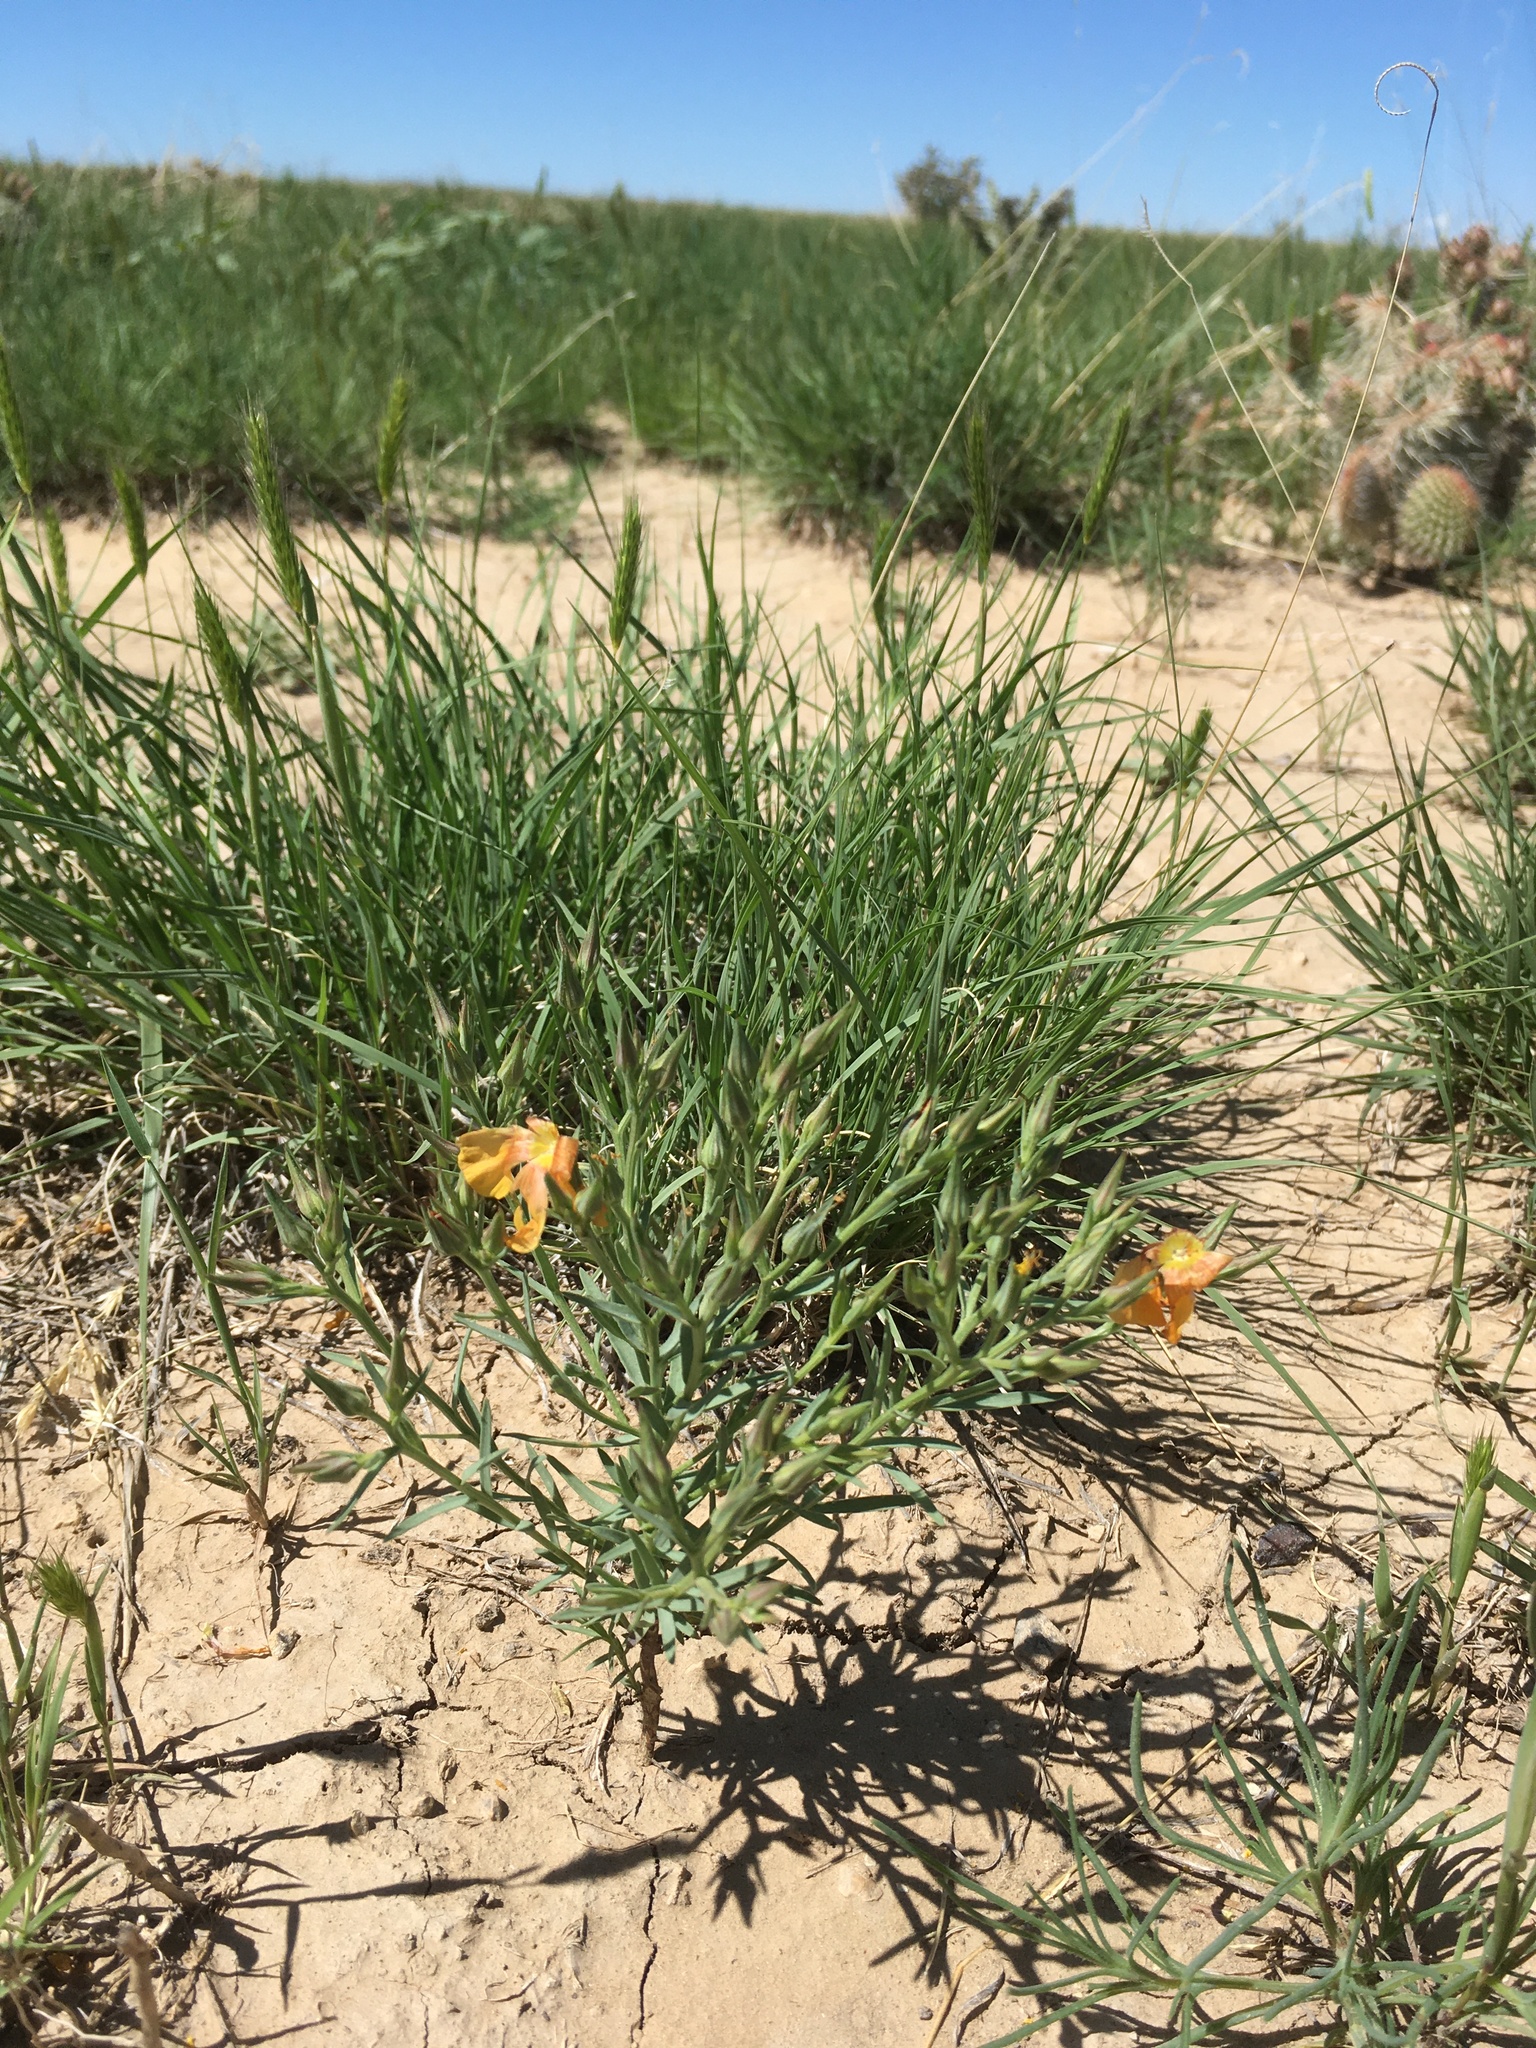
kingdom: Plantae
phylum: Tracheophyta
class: Magnoliopsida
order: Malpighiales
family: Linaceae
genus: Linum
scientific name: Linum rigidum
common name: Stiff-stem flax
